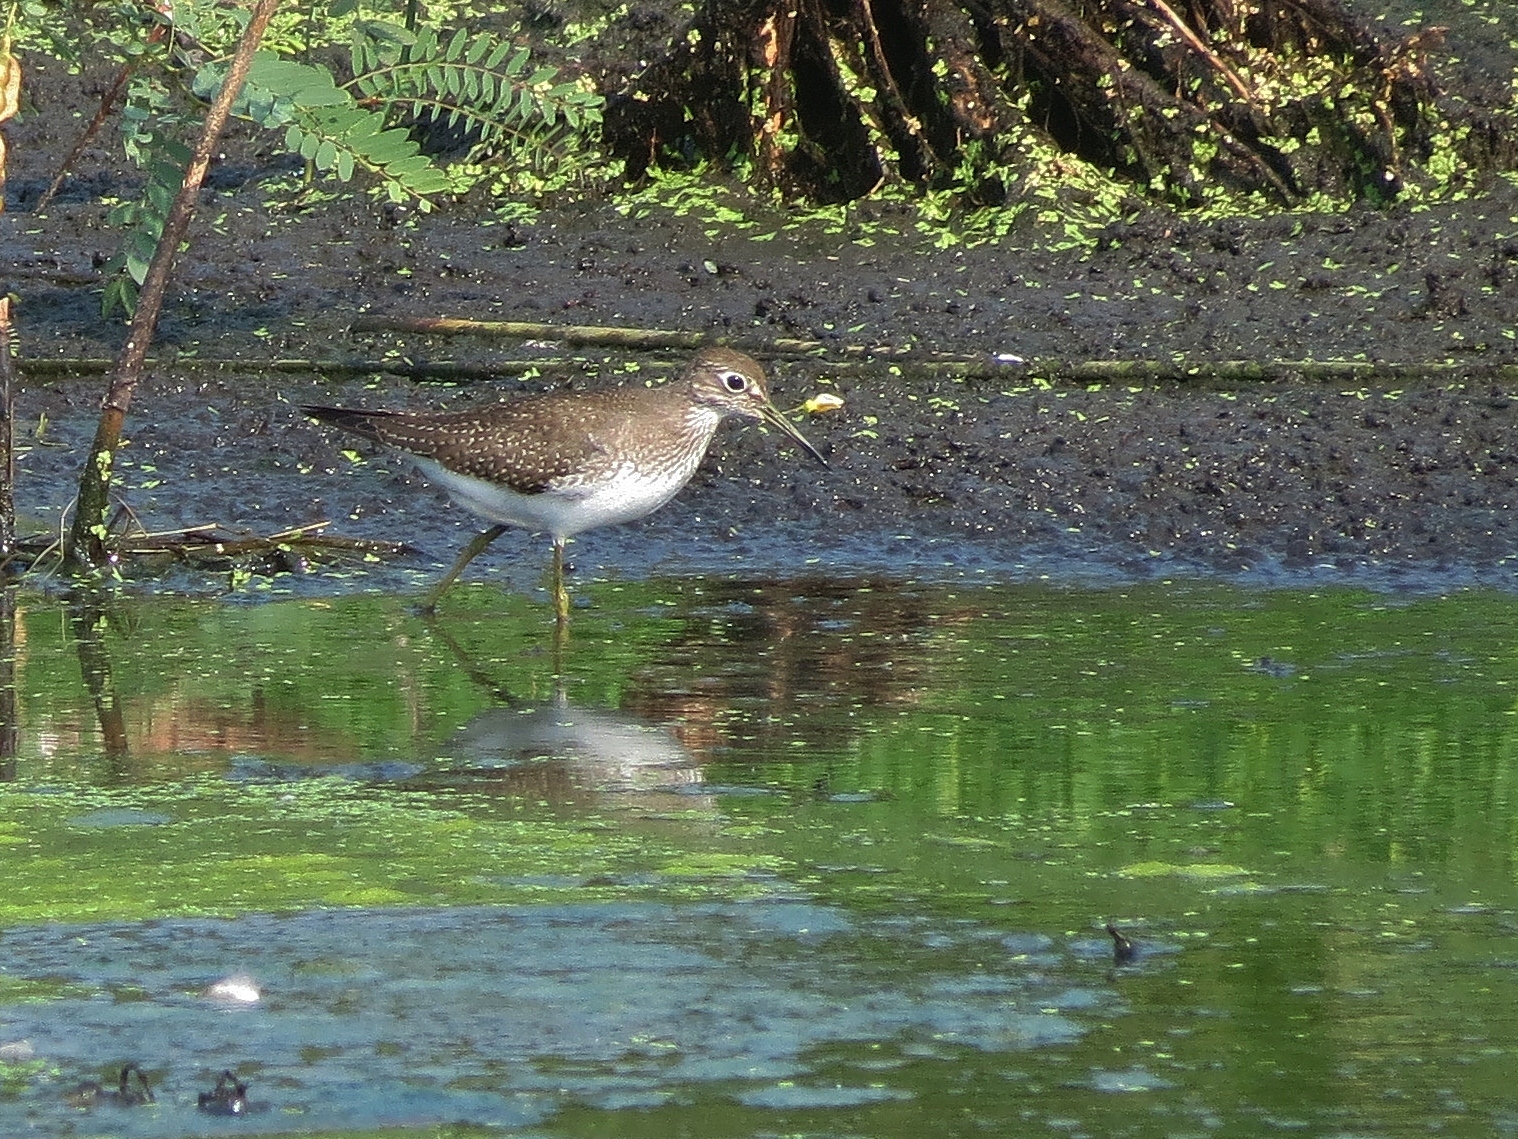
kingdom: Animalia
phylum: Chordata
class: Aves
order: Charadriiformes
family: Scolopacidae
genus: Tringa
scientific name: Tringa solitaria
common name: Solitary sandpiper
